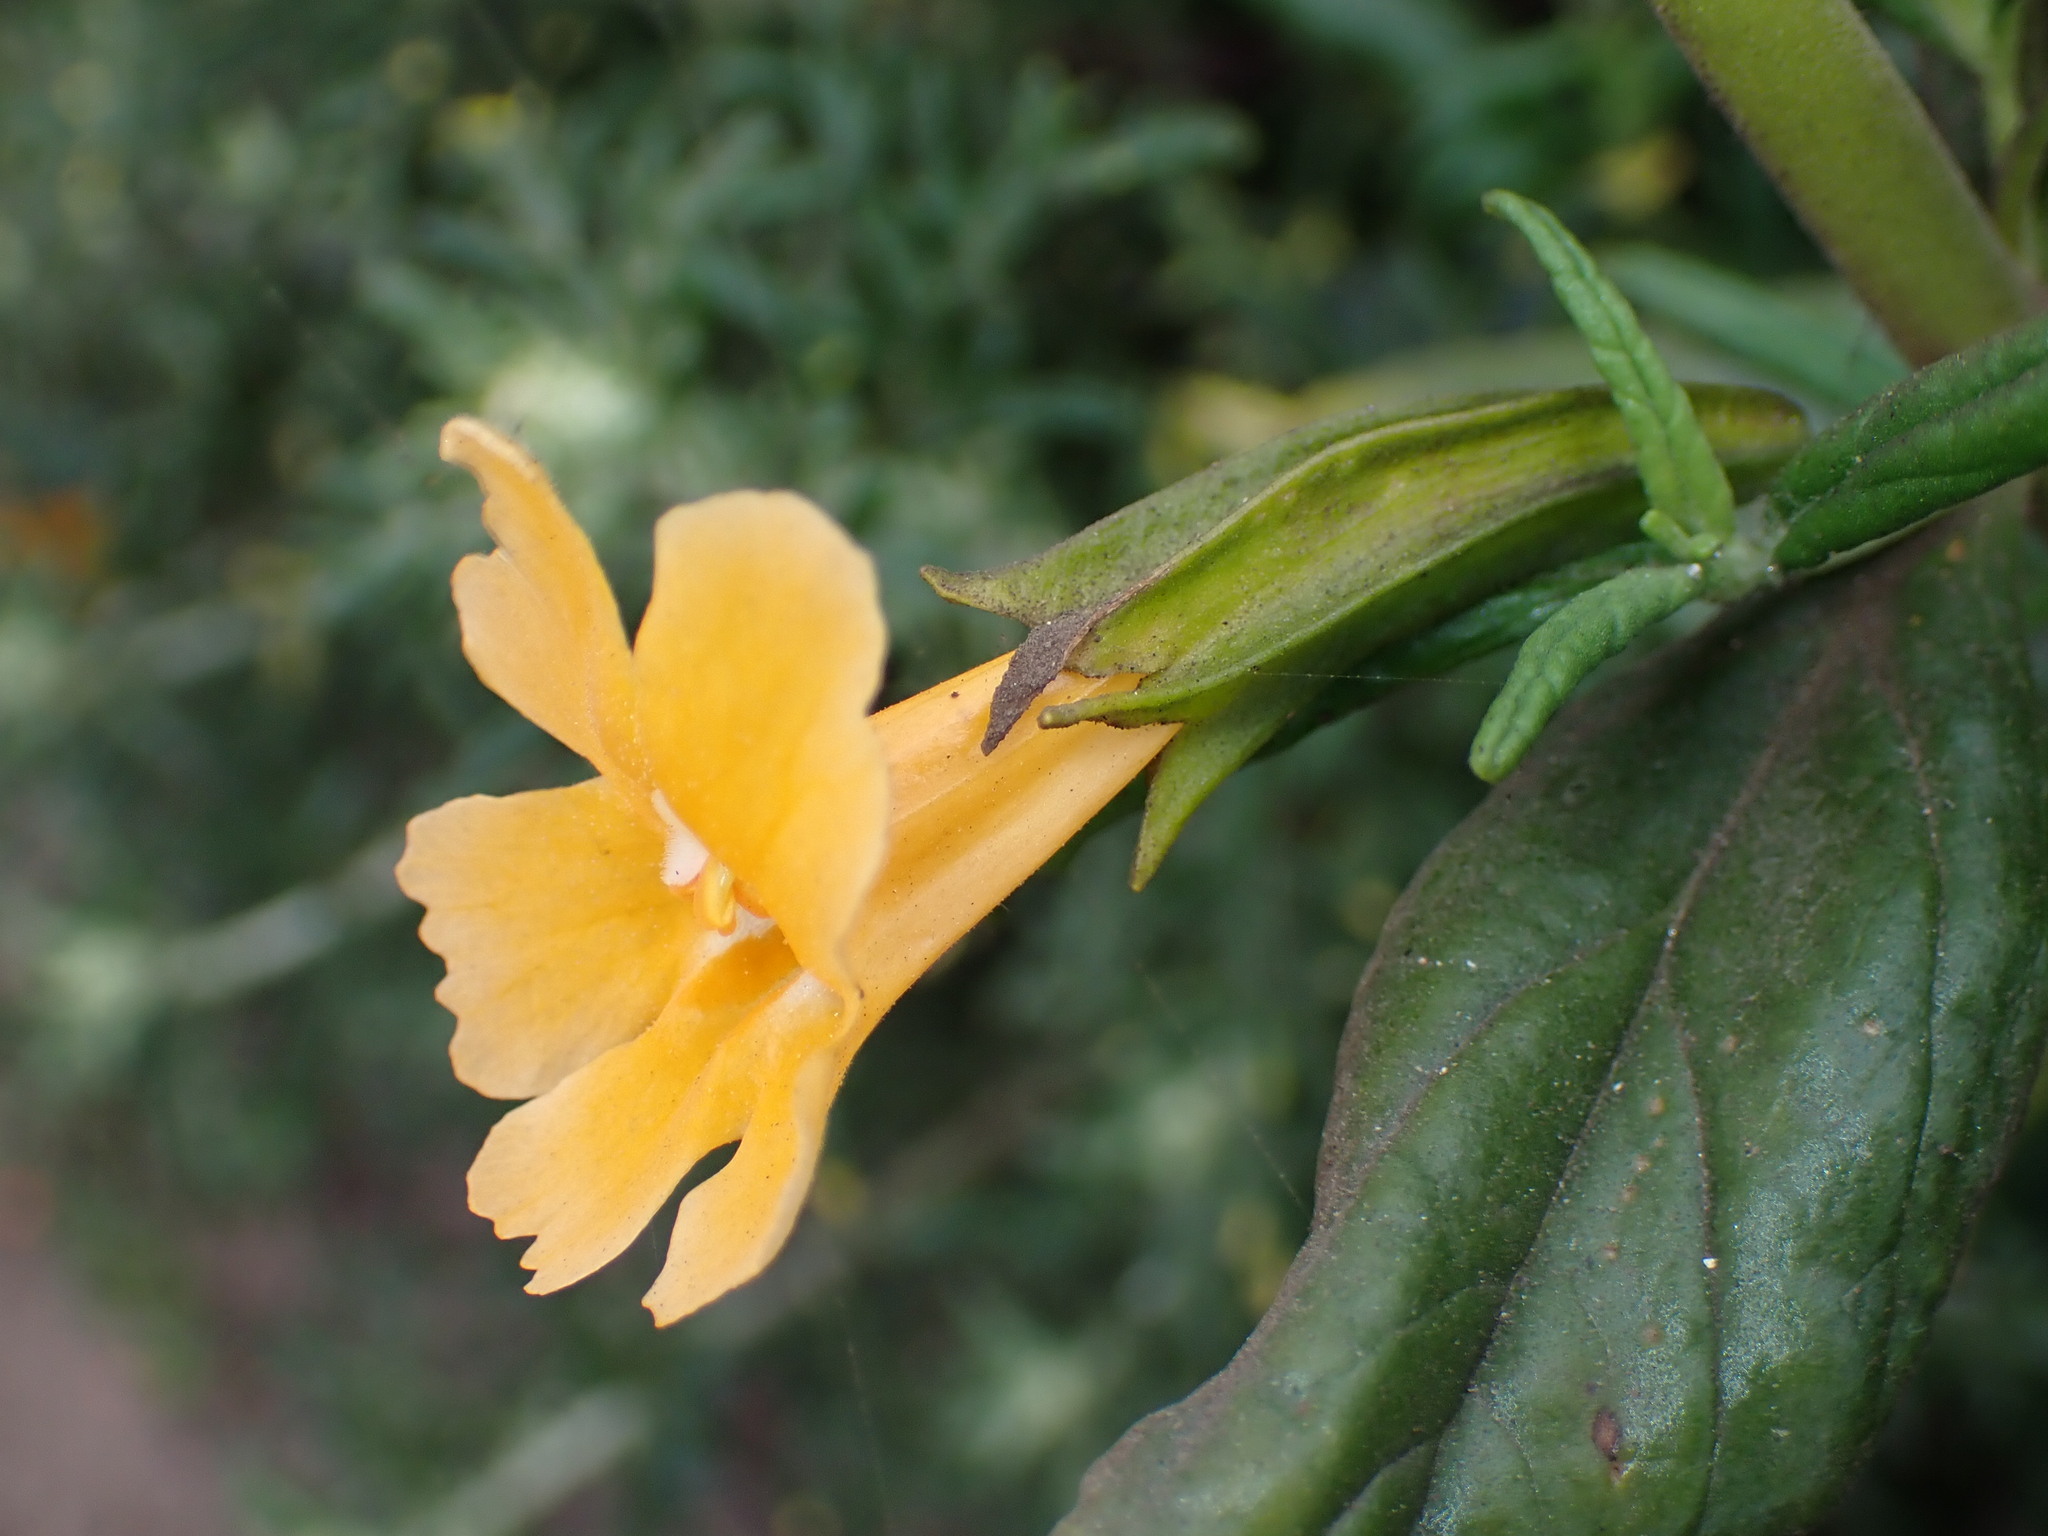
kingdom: Plantae
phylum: Tracheophyta
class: Magnoliopsida
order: Lamiales
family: Phrymaceae
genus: Diplacus
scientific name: Diplacus aurantiacus
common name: Bush monkey-flower
